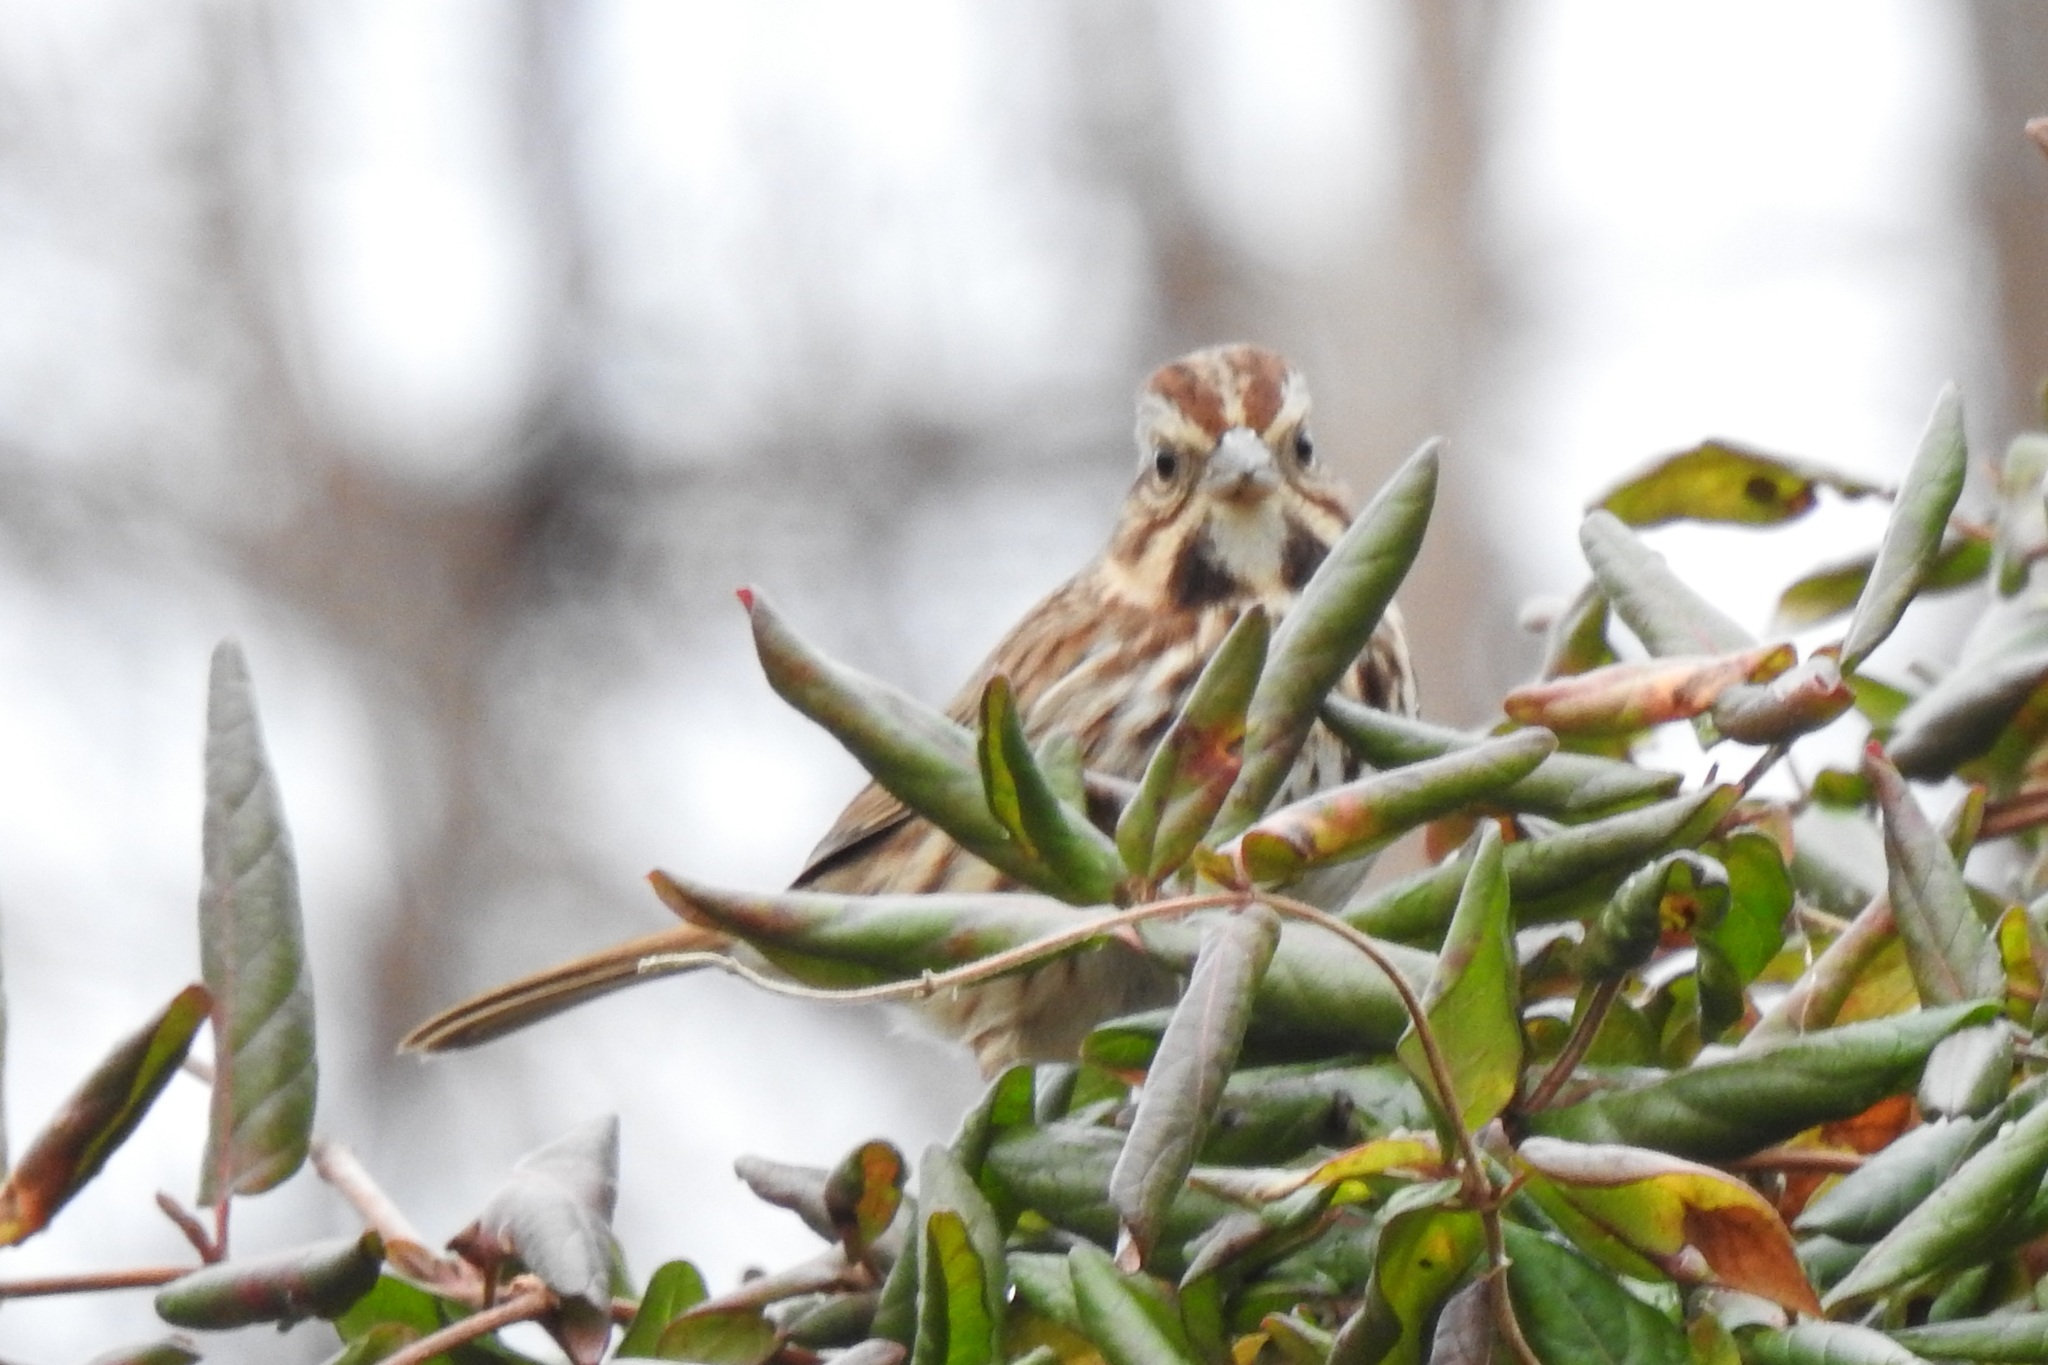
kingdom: Animalia
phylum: Chordata
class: Aves
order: Passeriformes
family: Passerellidae
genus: Melospiza
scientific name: Melospiza melodia
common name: Song sparrow
